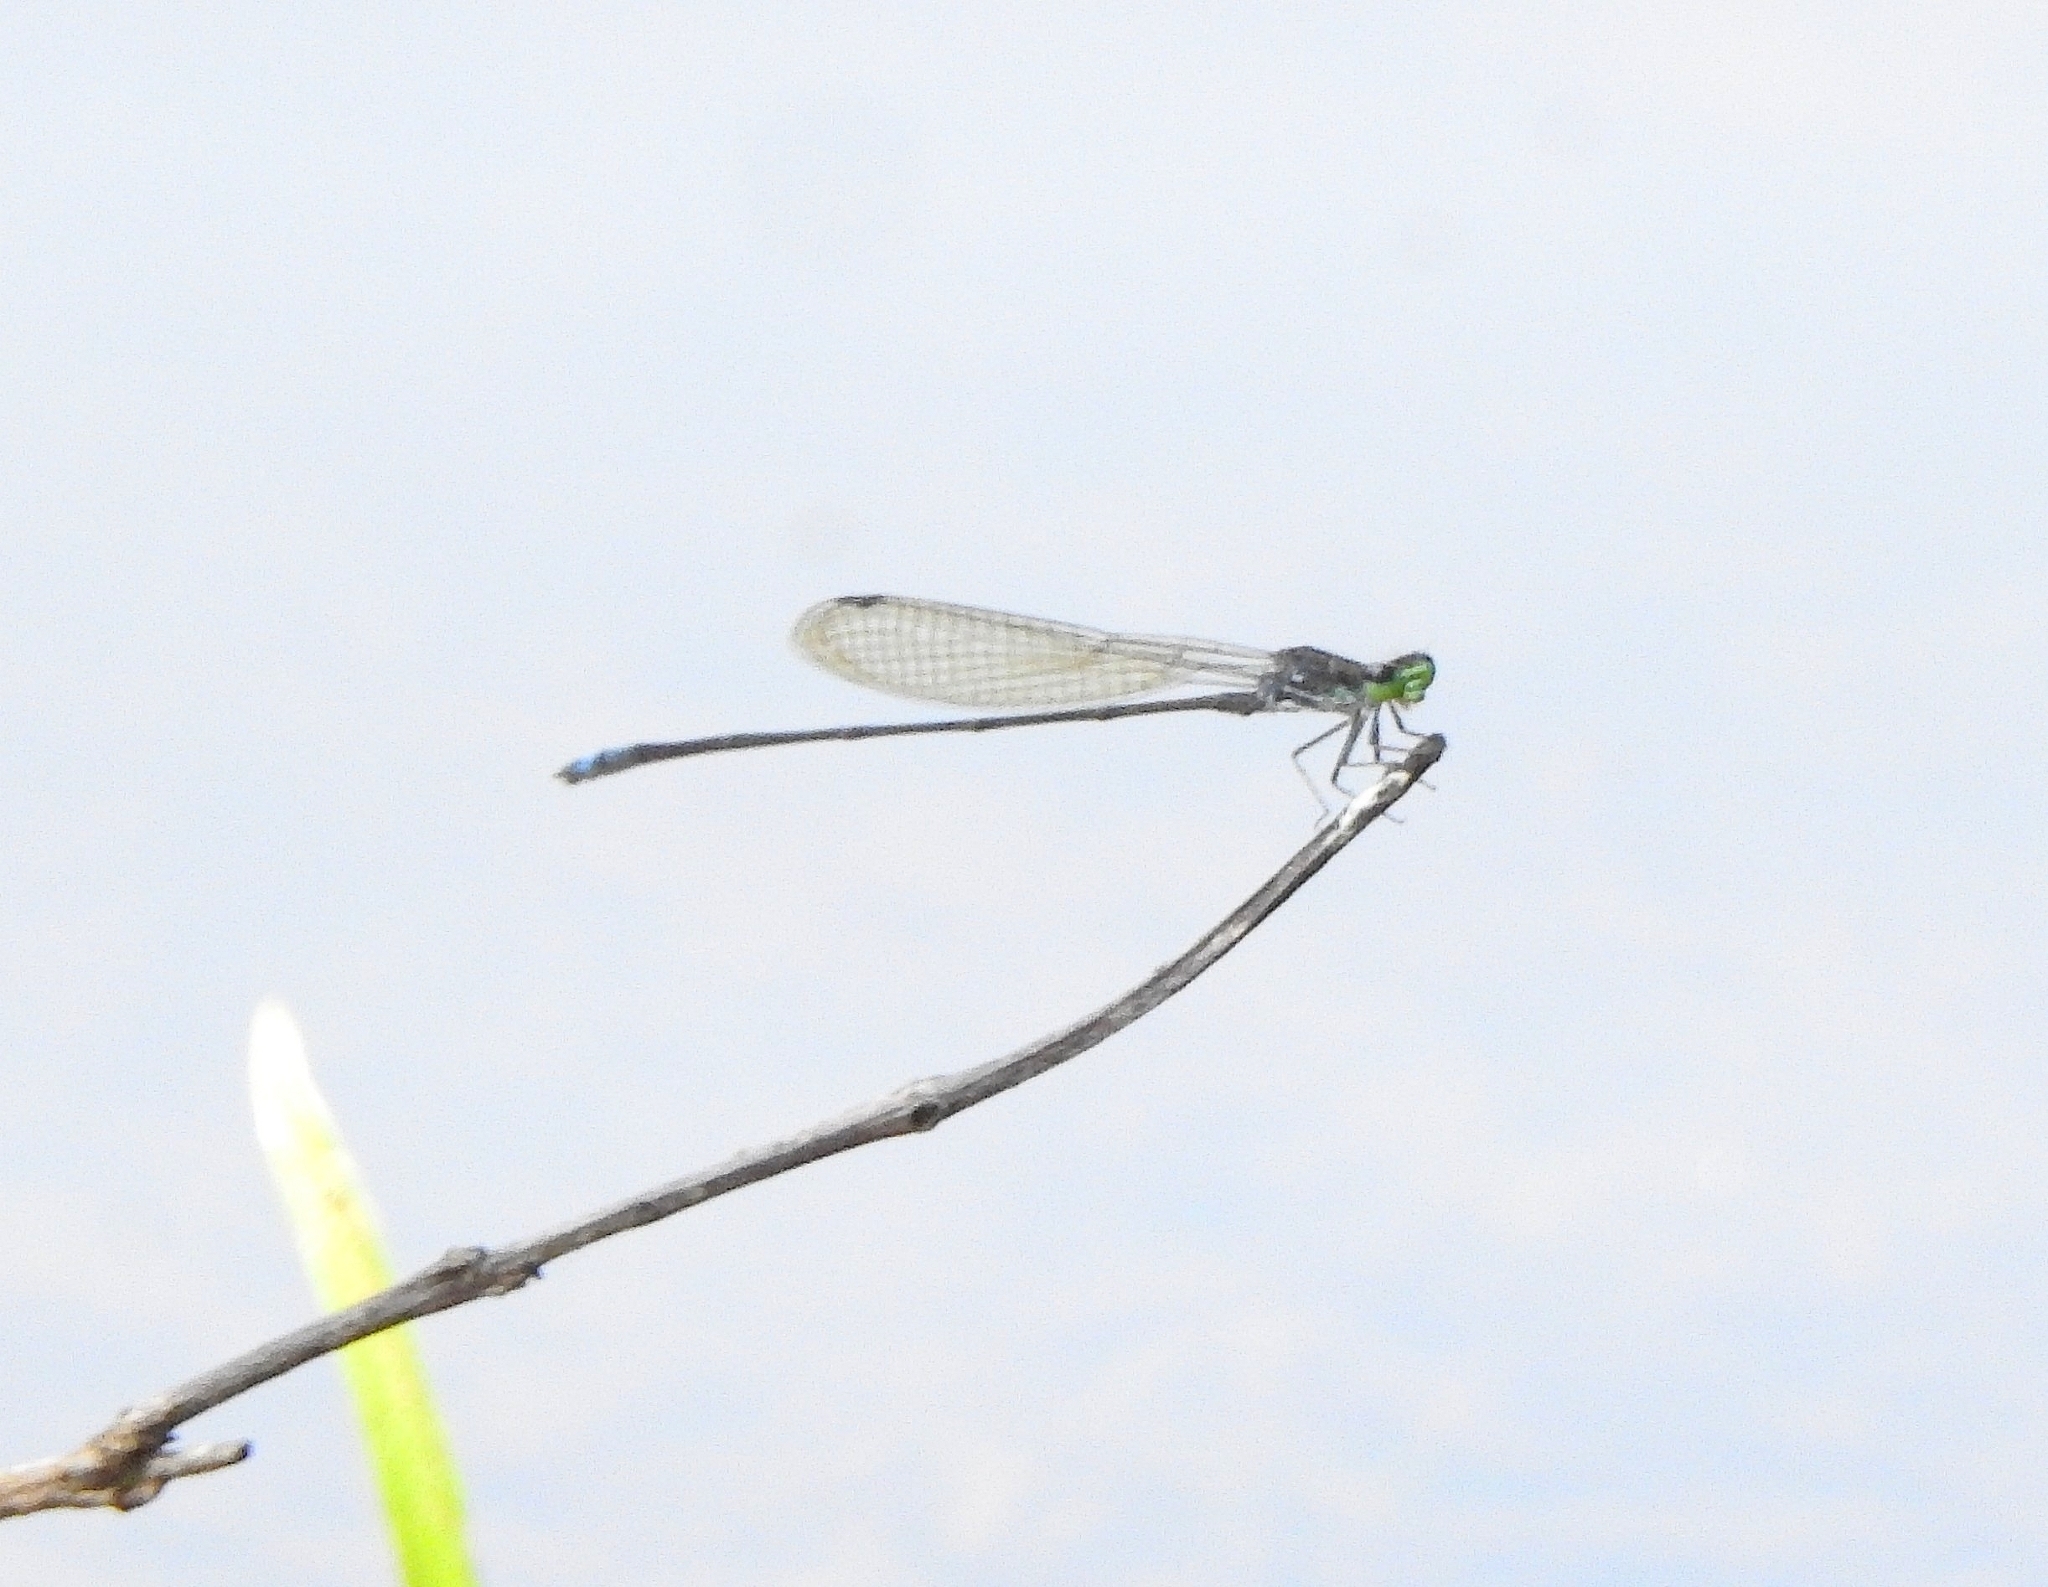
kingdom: Animalia
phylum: Arthropoda
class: Insecta
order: Odonata
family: Coenagrionidae
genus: Pseudagrion
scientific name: Pseudagrion indicum
